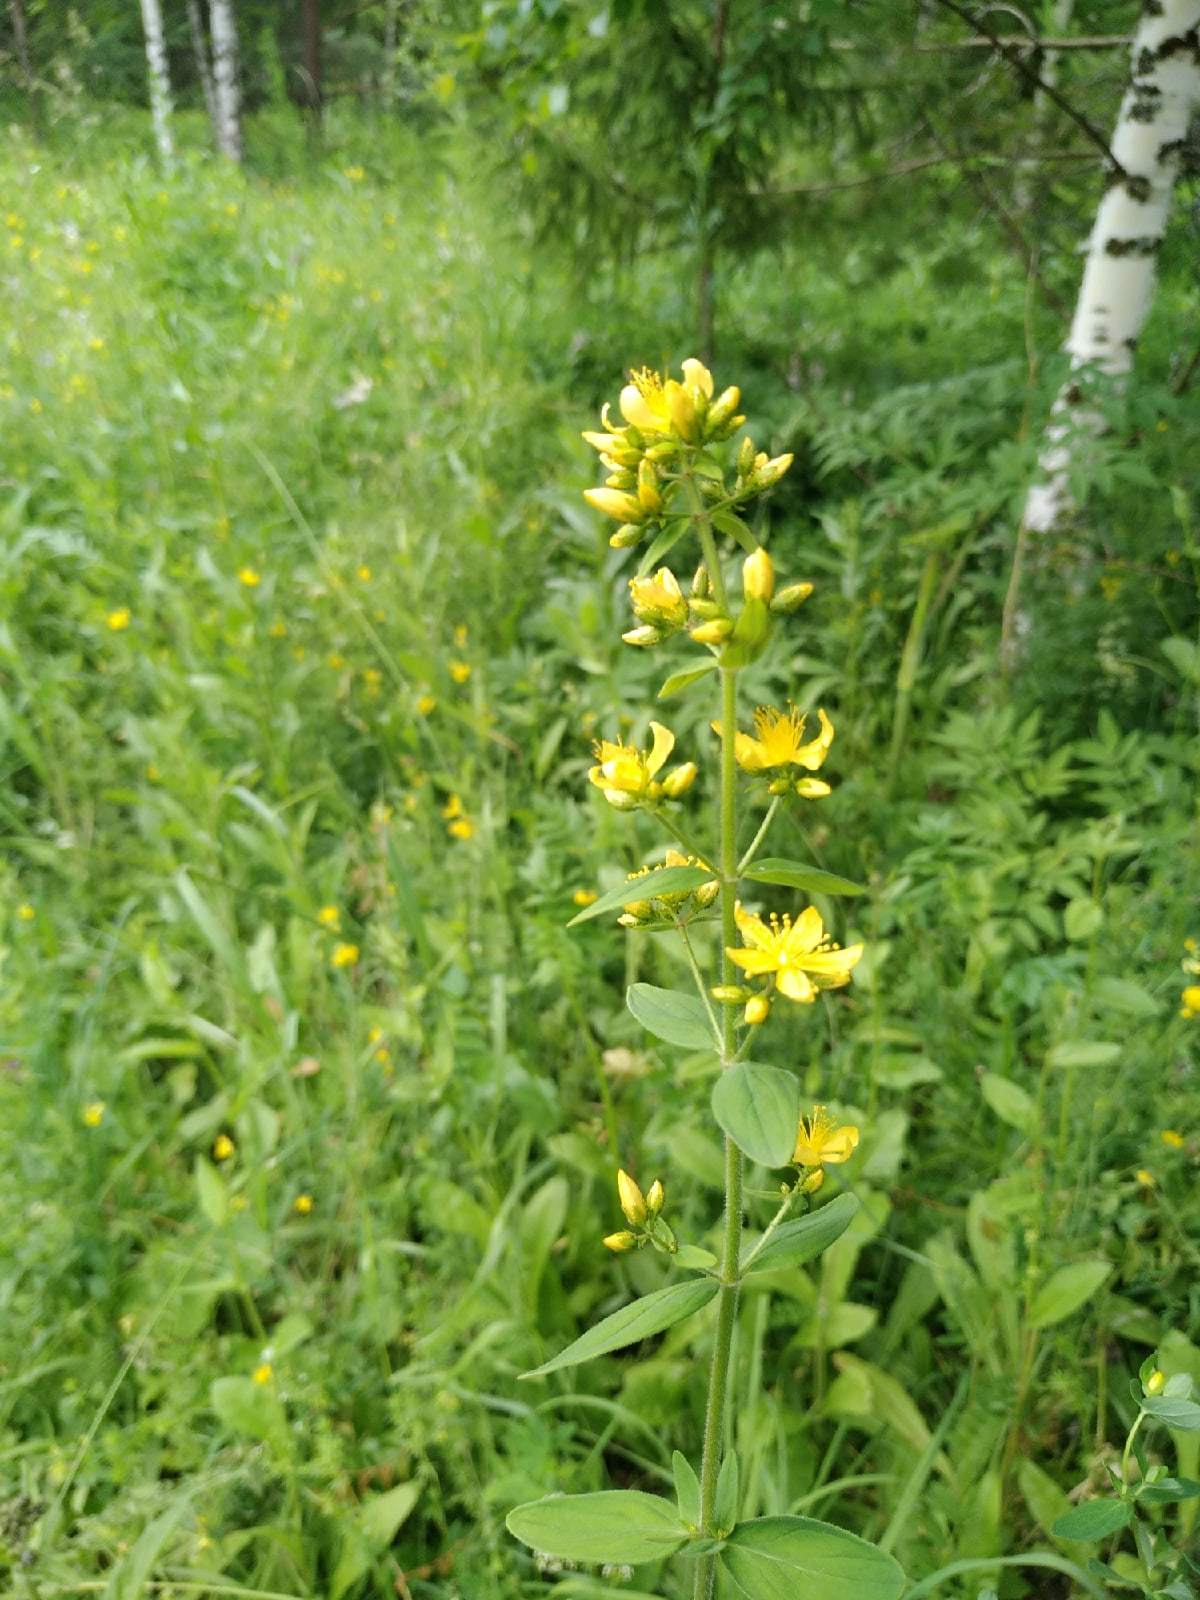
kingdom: Plantae
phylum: Tracheophyta
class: Magnoliopsida
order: Malpighiales
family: Hypericaceae
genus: Hypericum
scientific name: Hypericum hirsutum
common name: Hairy st. john's-wort
